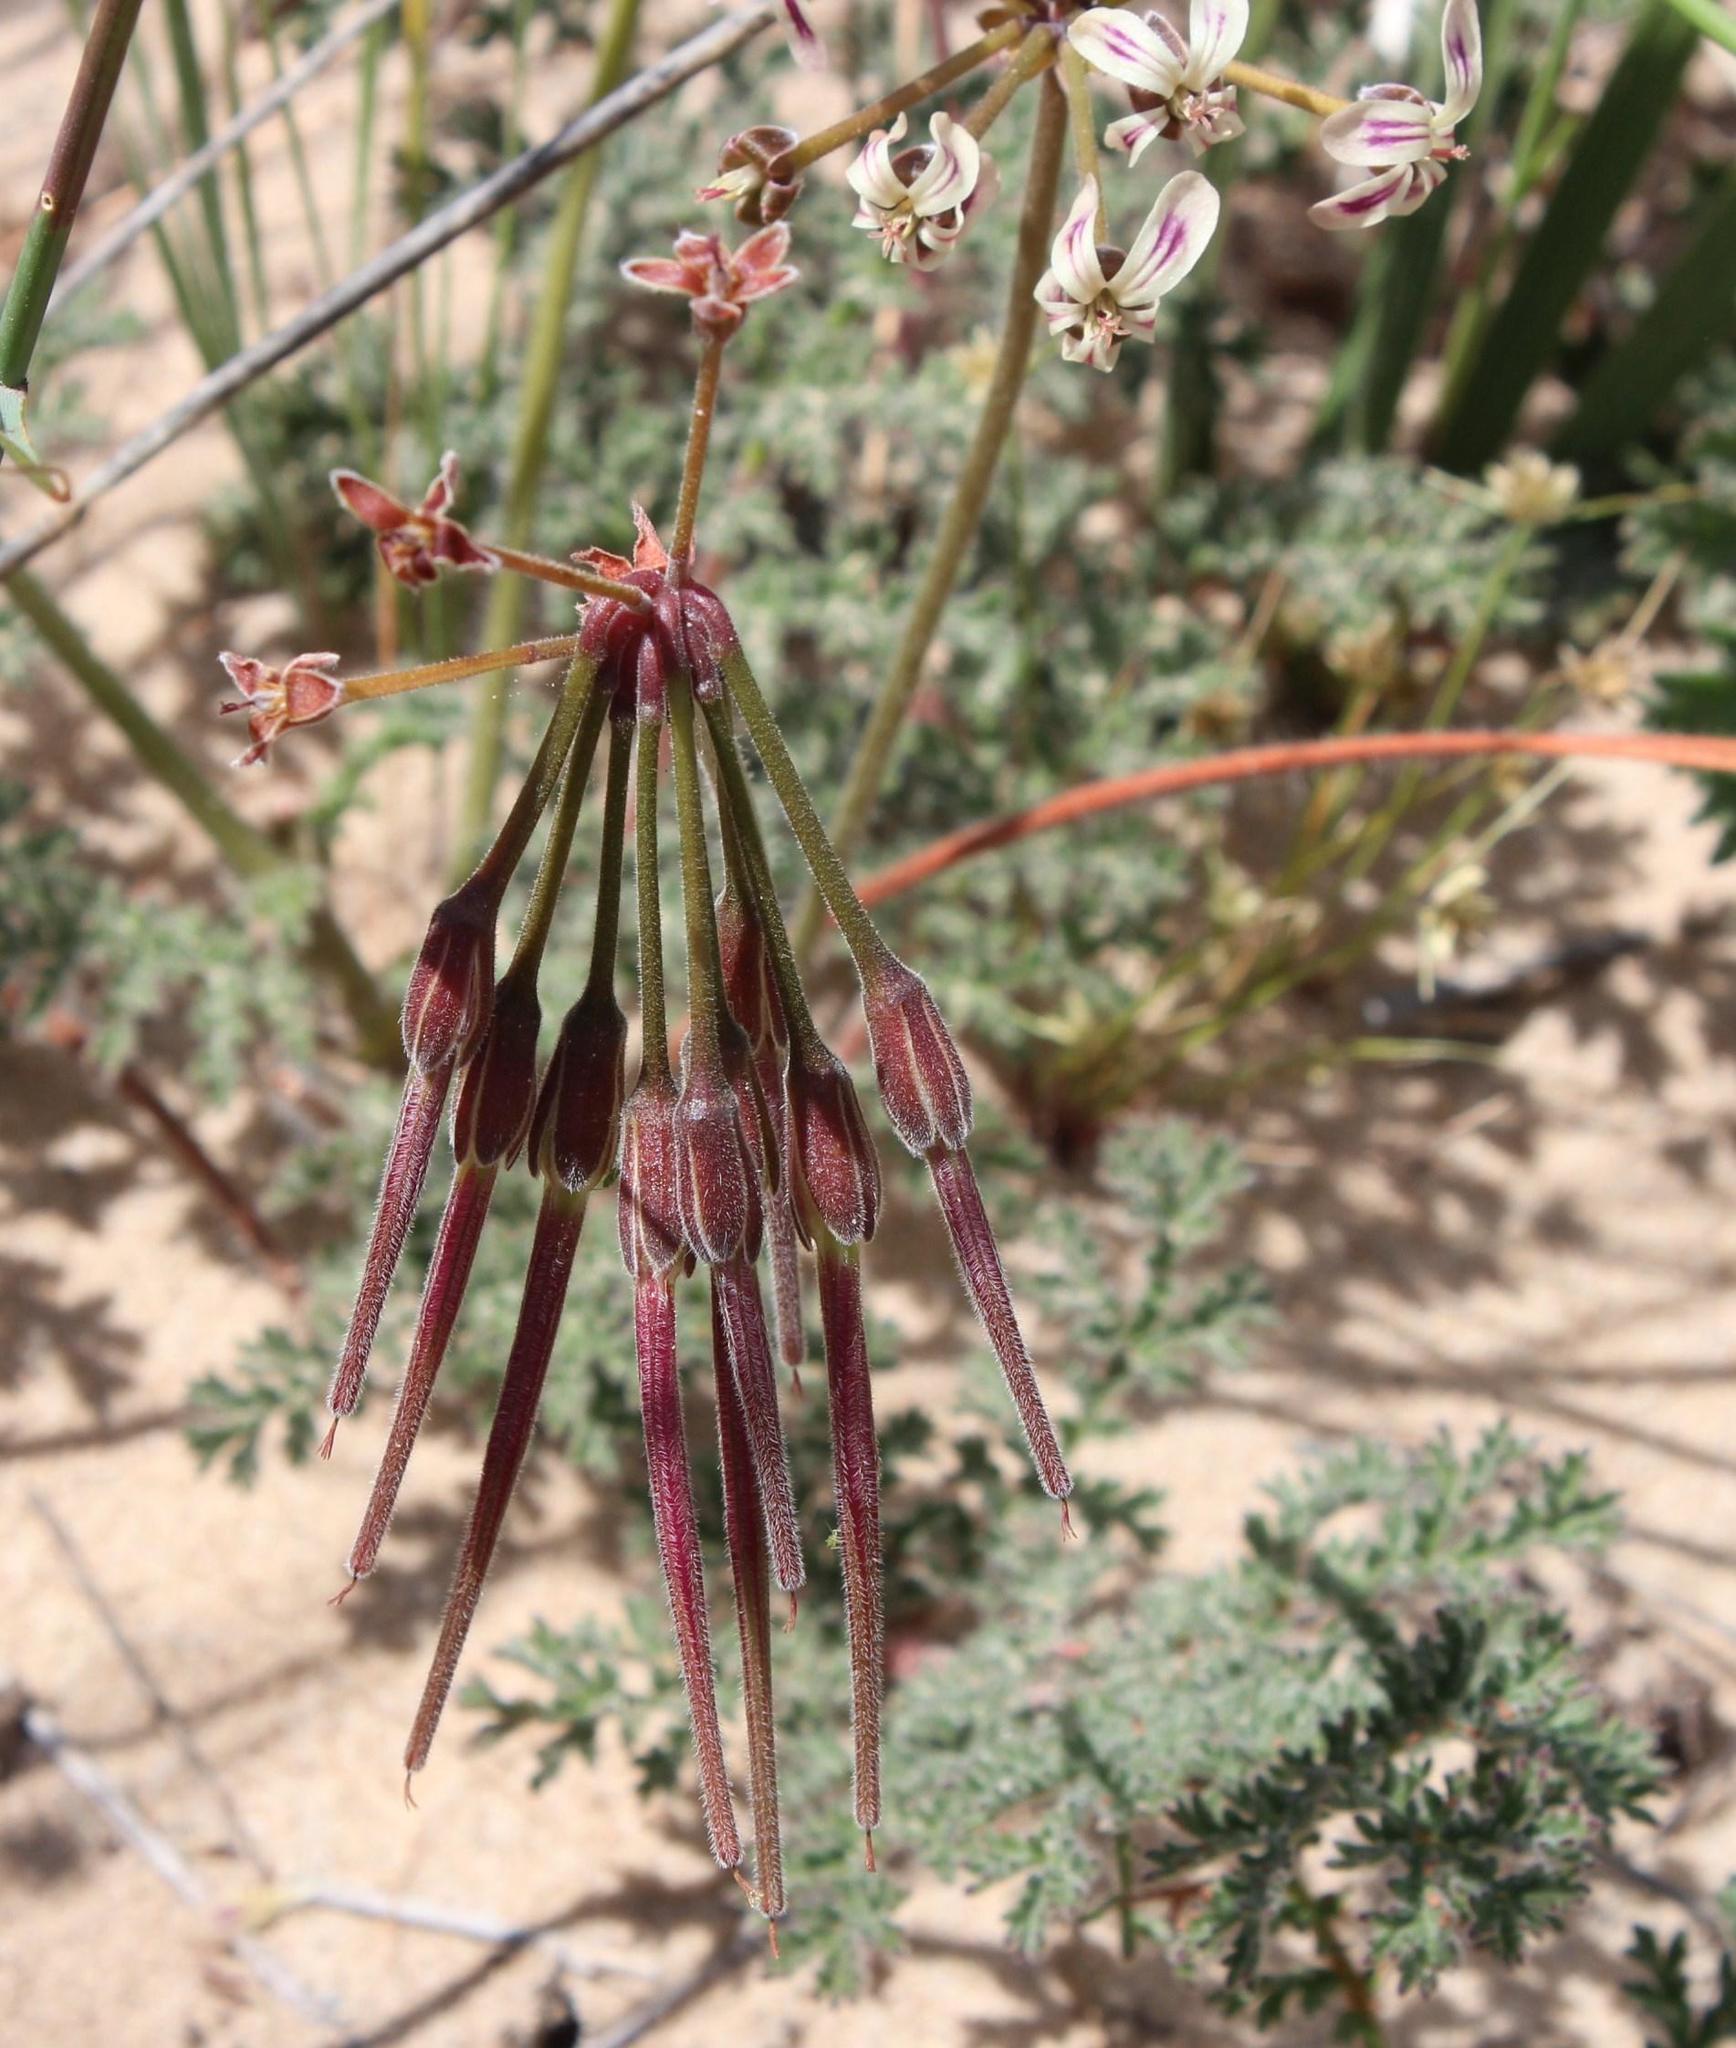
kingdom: Plantae
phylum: Tracheophyta
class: Magnoliopsida
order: Geraniales
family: Geraniaceae
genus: Pelargonium
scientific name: Pelargonium triste
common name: Night-scent pelargonium
